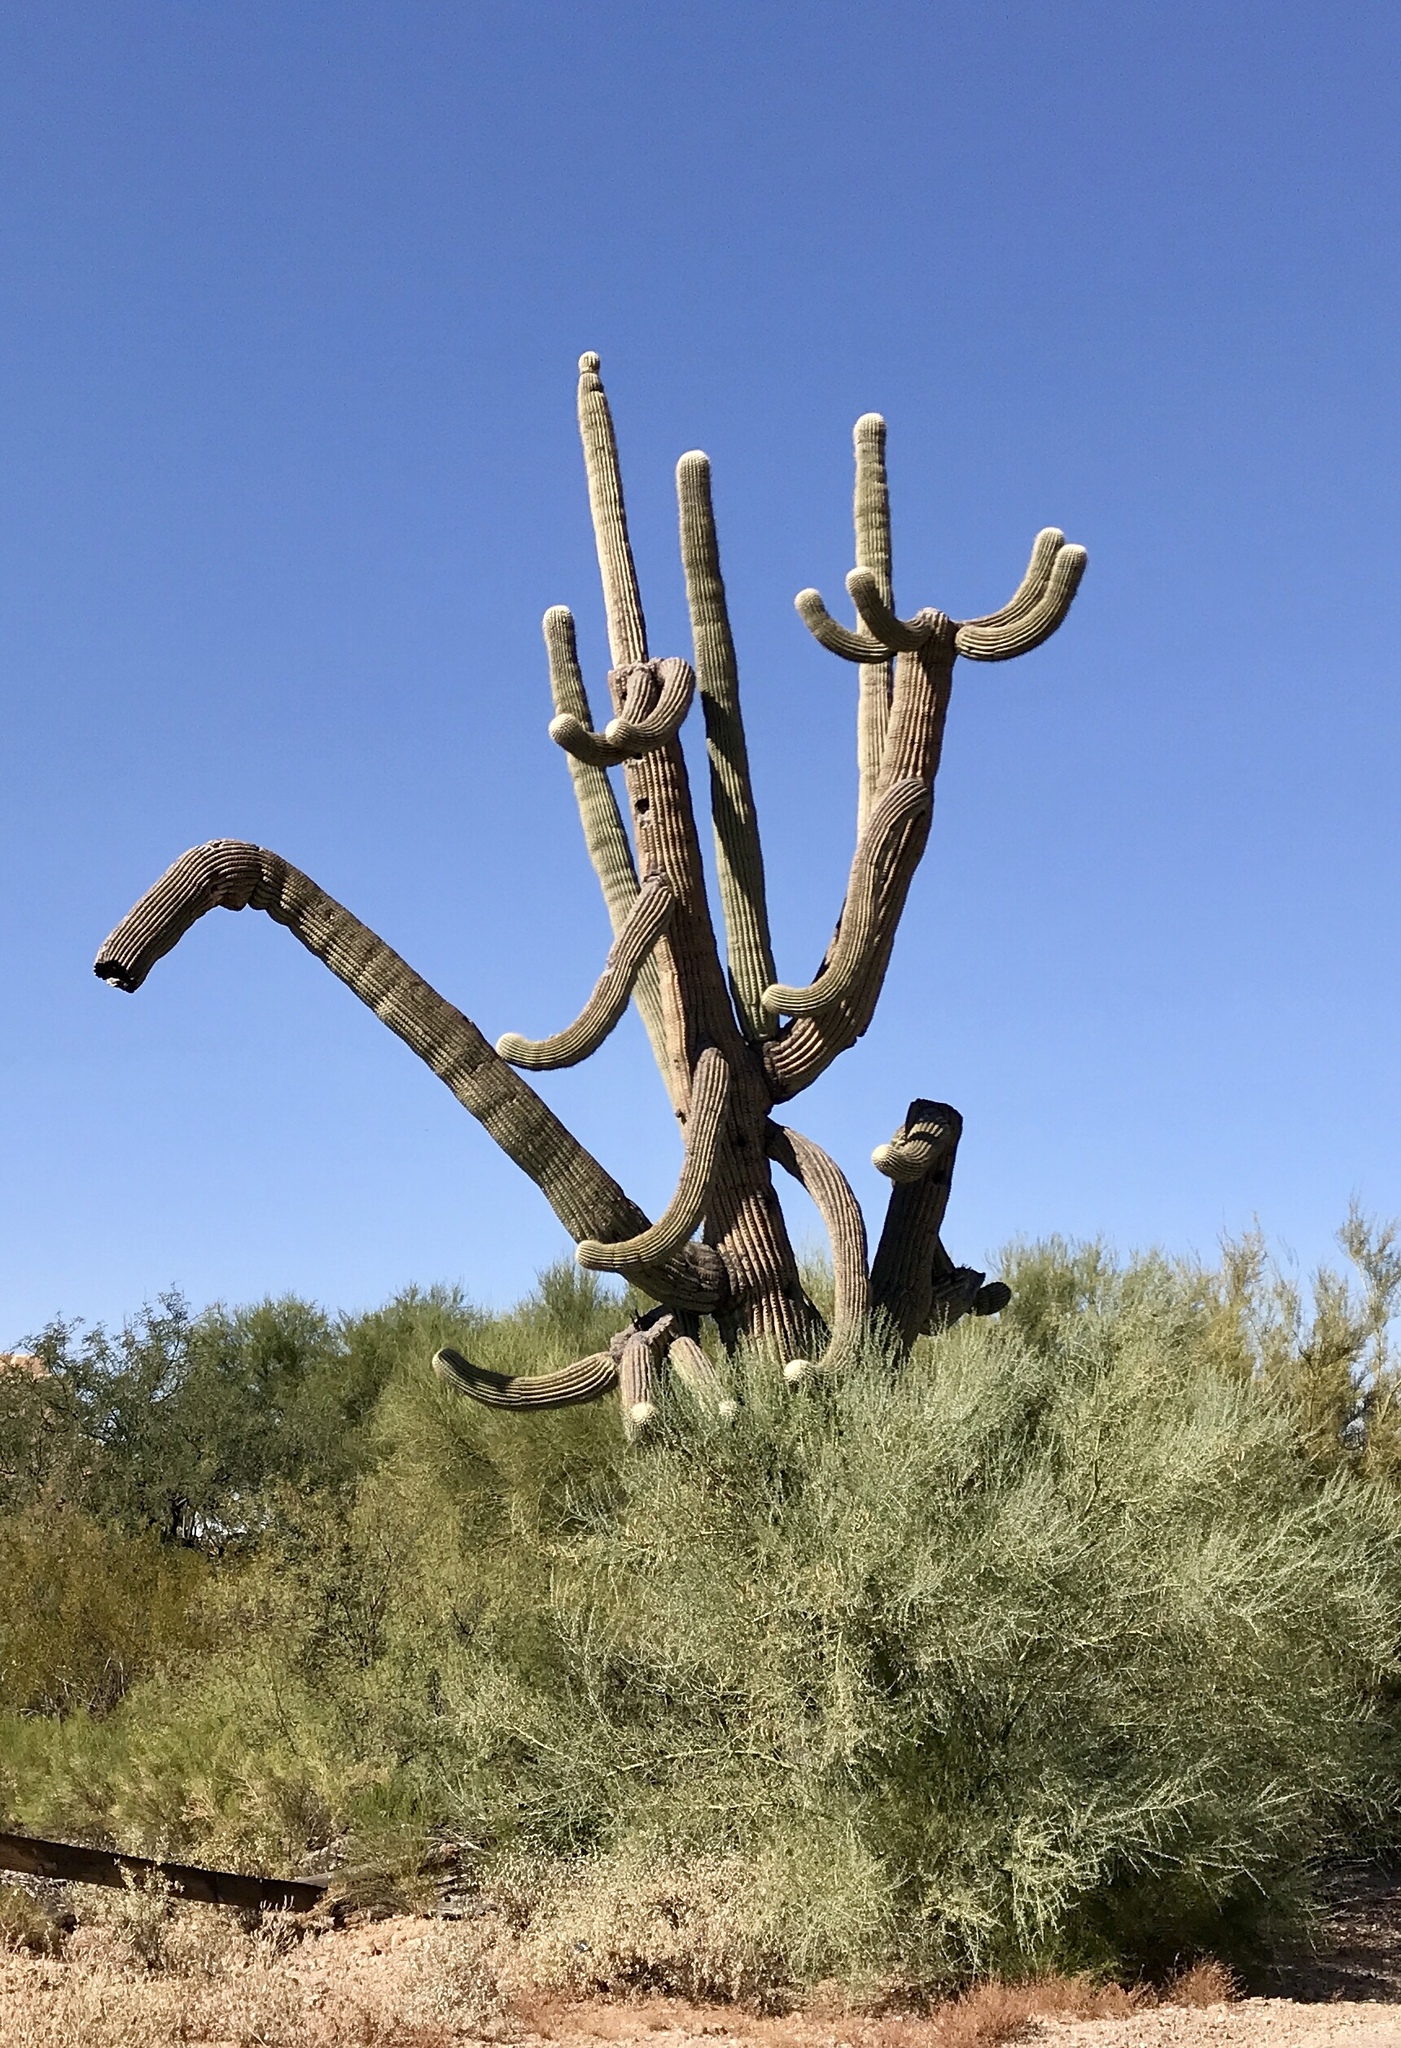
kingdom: Plantae
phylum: Tracheophyta
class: Magnoliopsida
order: Caryophyllales
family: Cactaceae
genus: Carnegiea
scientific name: Carnegiea gigantea
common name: Saguaro
